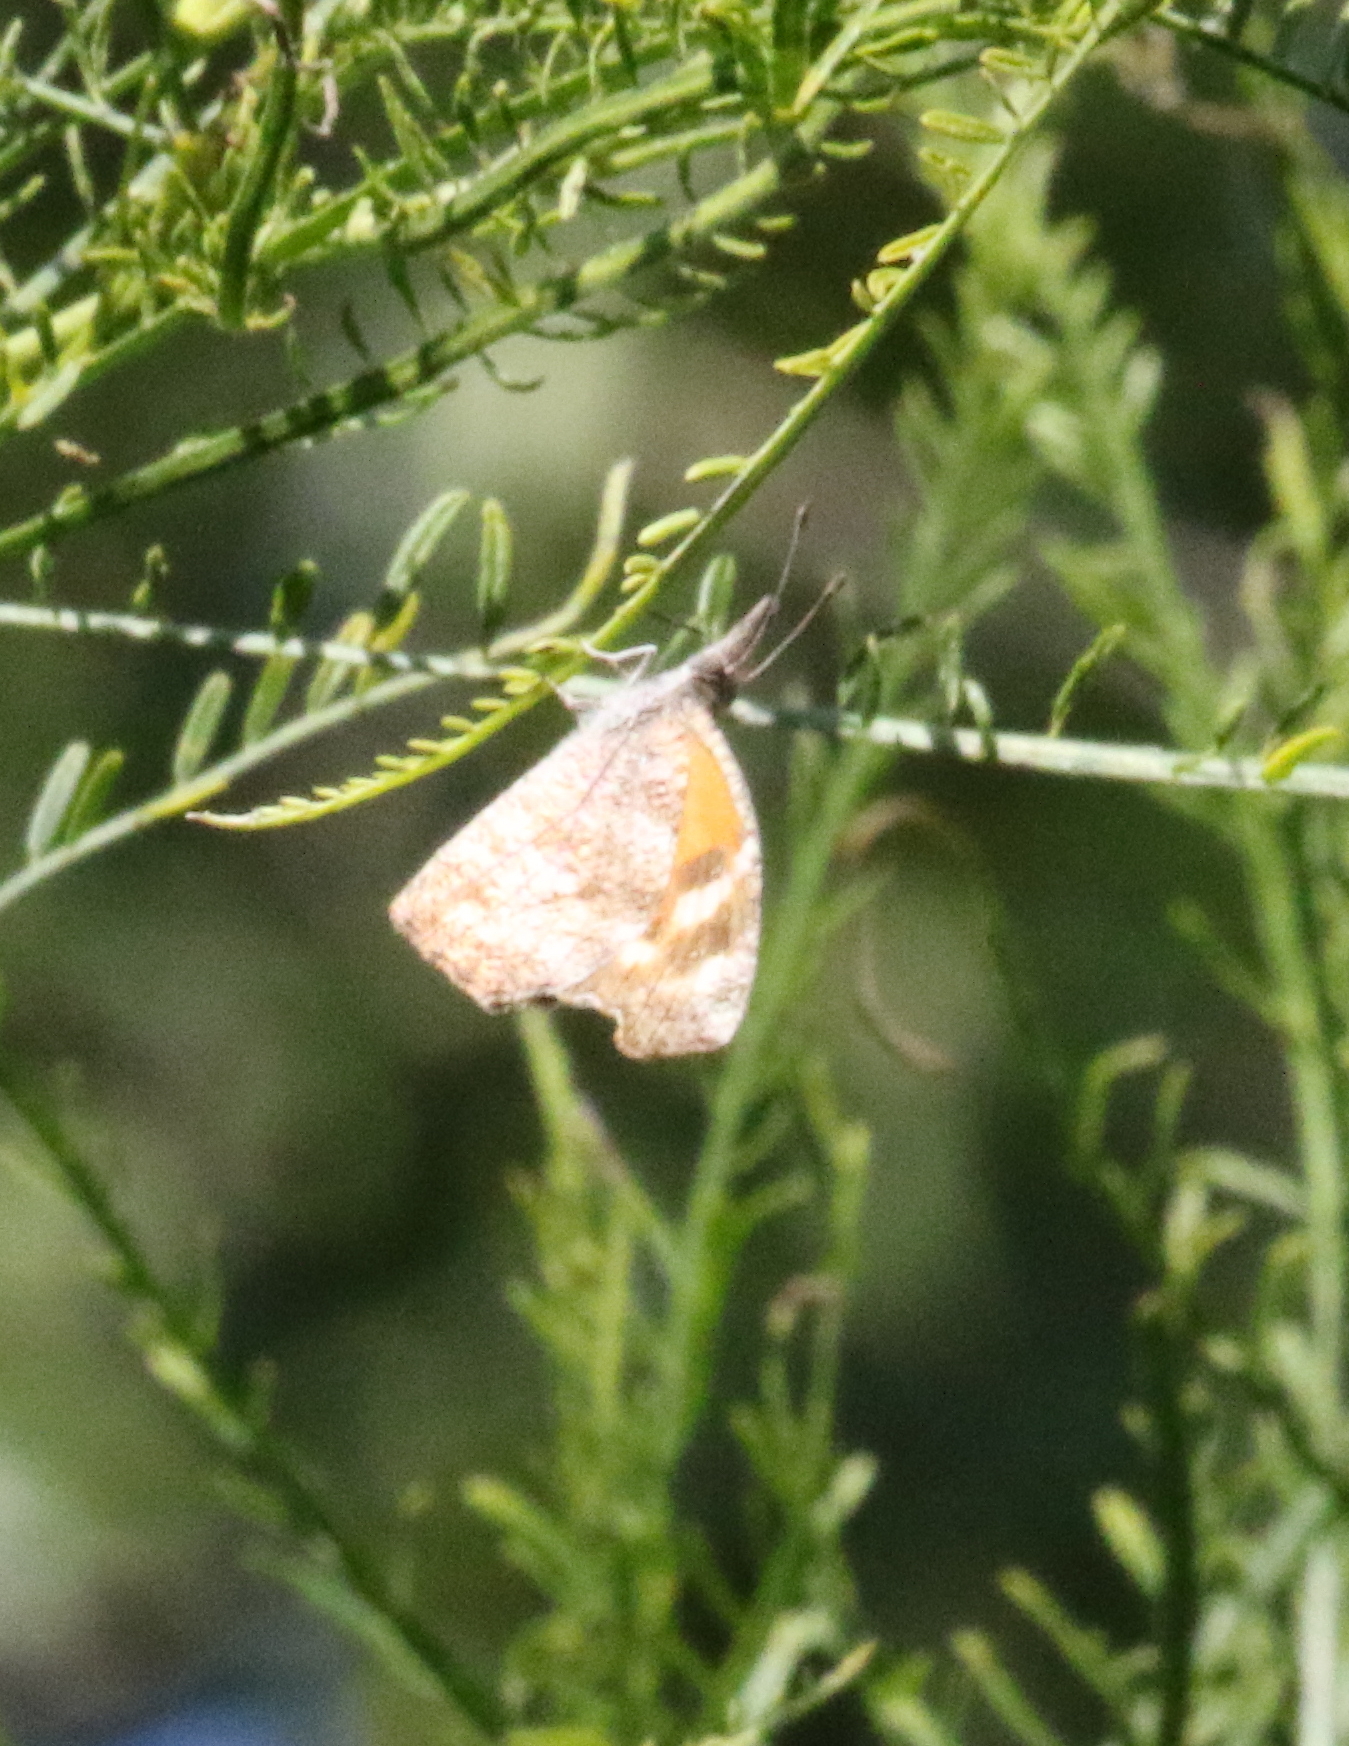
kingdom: Animalia
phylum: Arthropoda
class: Insecta
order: Lepidoptera
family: Nymphalidae
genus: Libytheana
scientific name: Libytheana carinenta
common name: American snout
